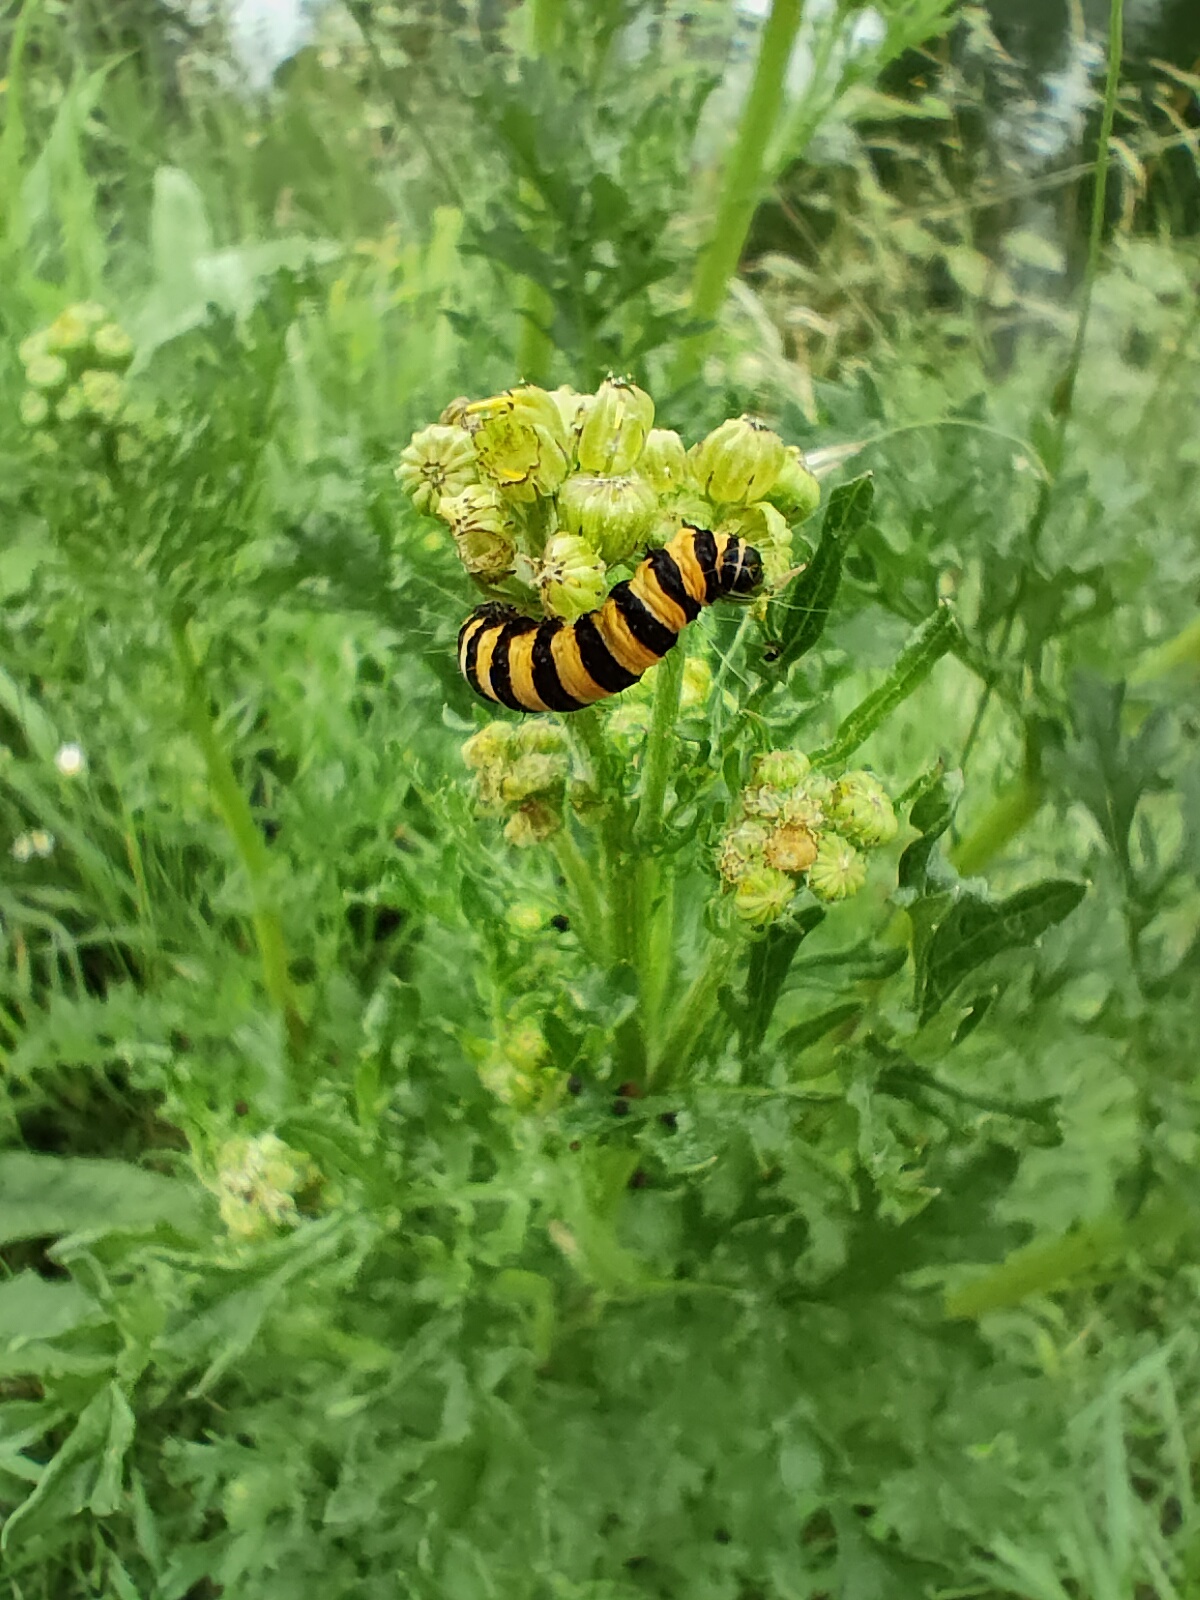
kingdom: Animalia
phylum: Arthropoda
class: Insecta
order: Lepidoptera
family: Erebidae
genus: Tyria
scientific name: Tyria jacobaeae
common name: Cinnabar
